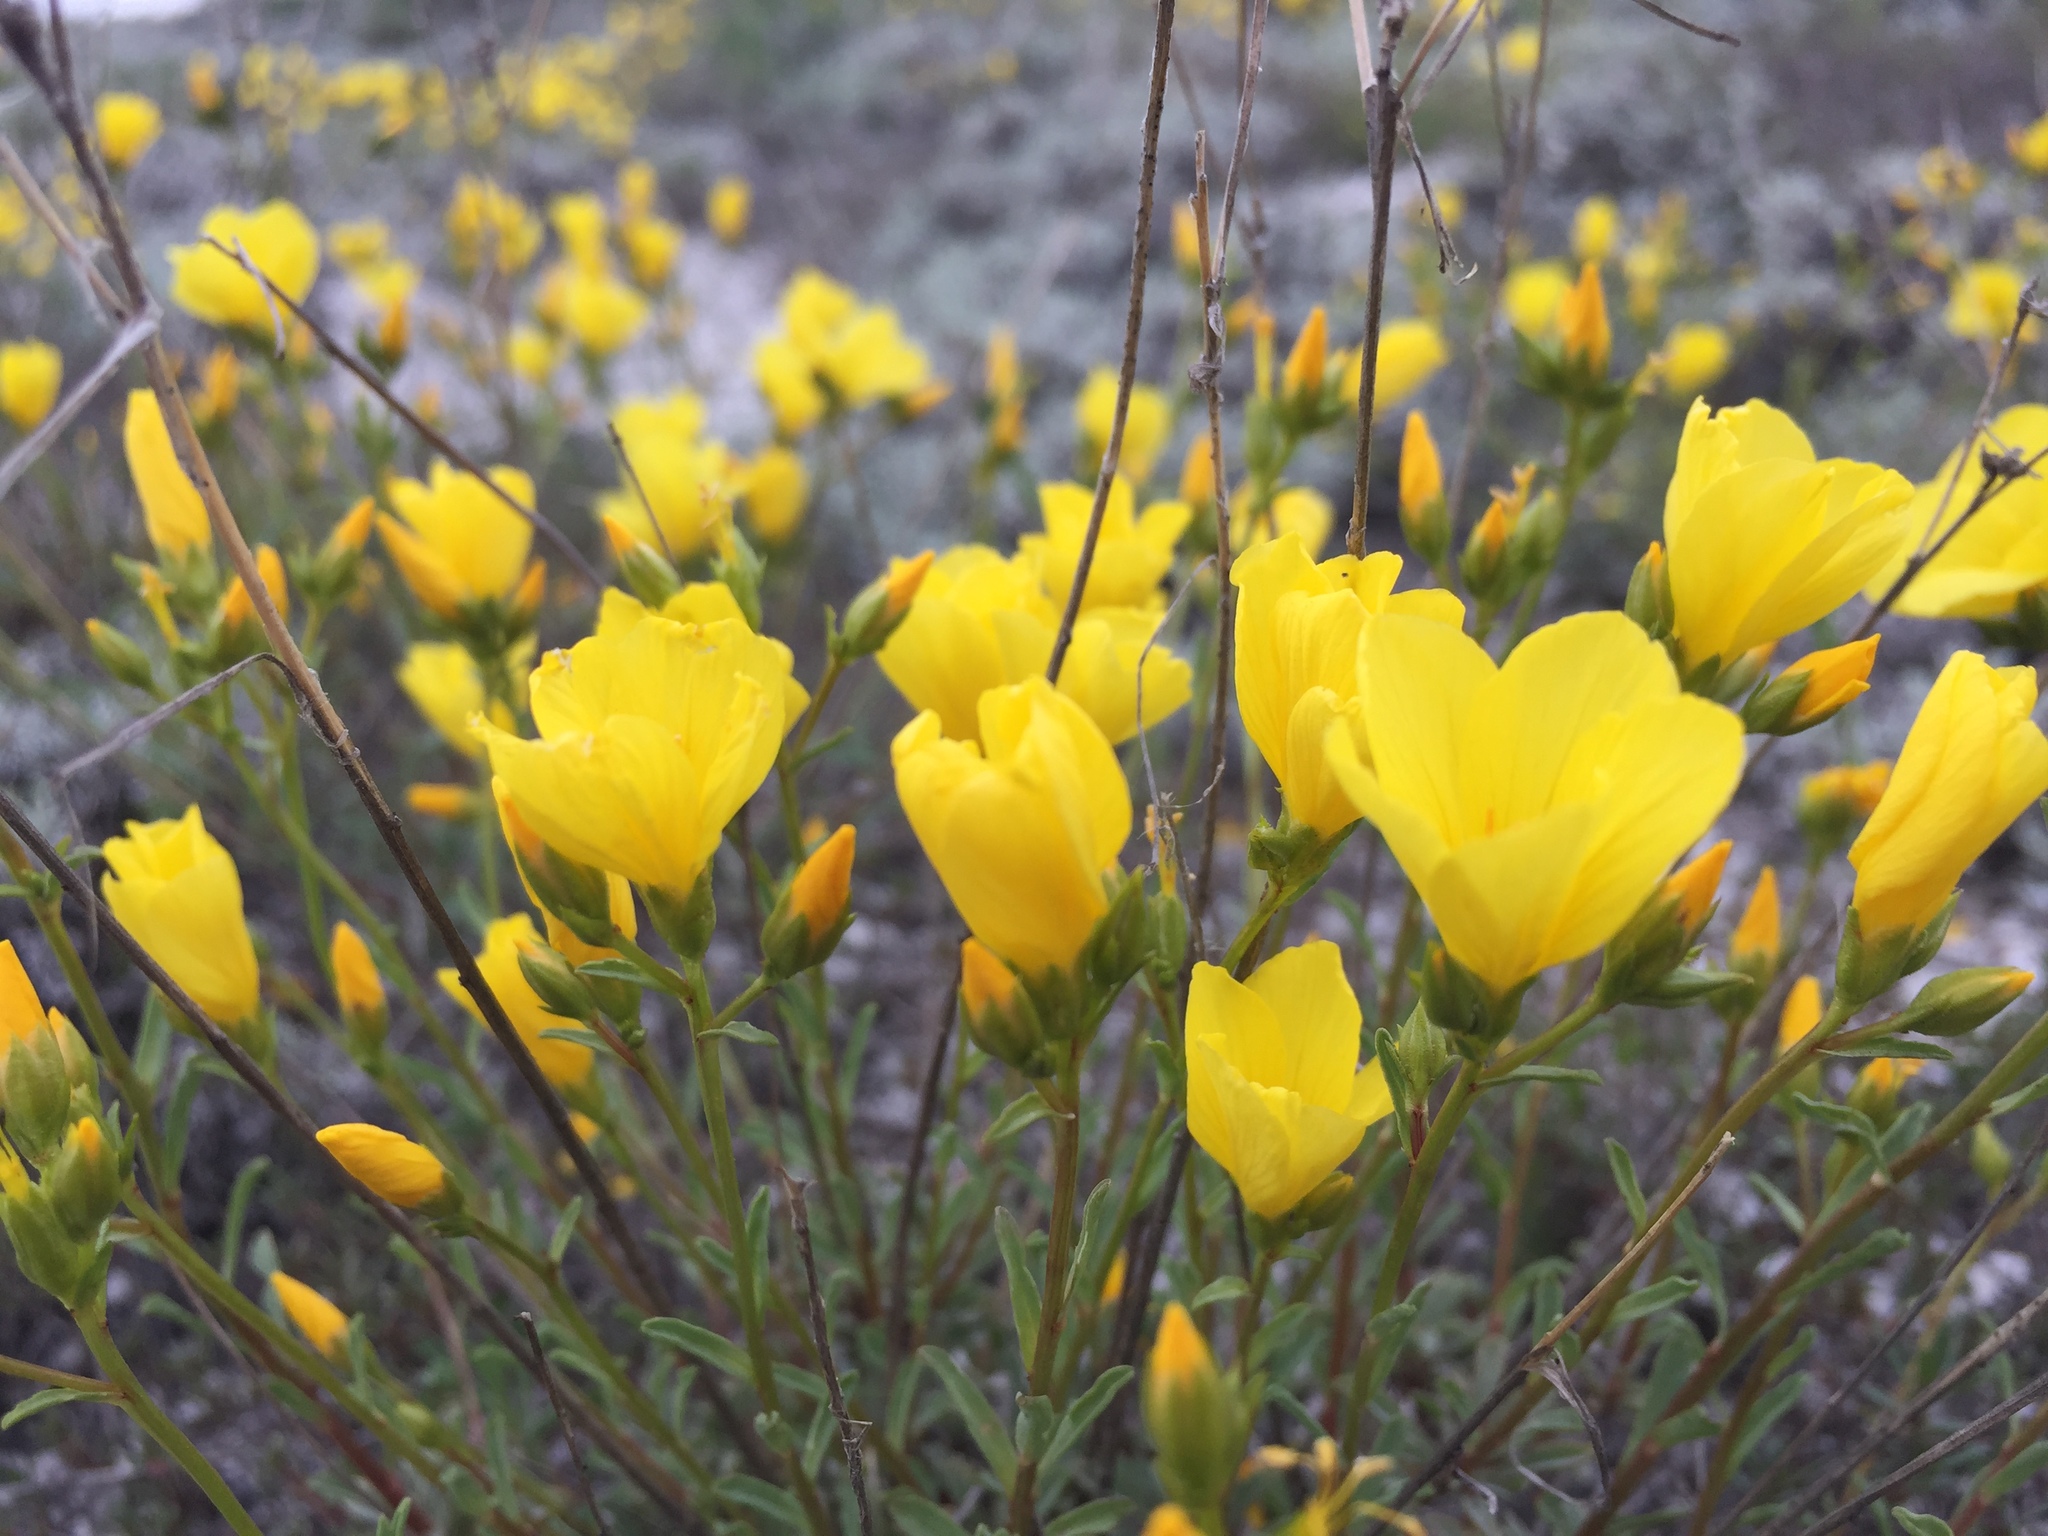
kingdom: Plantae
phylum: Tracheophyta
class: Magnoliopsida
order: Malpighiales
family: Linaceae
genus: Linum
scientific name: Linum ucranicum
